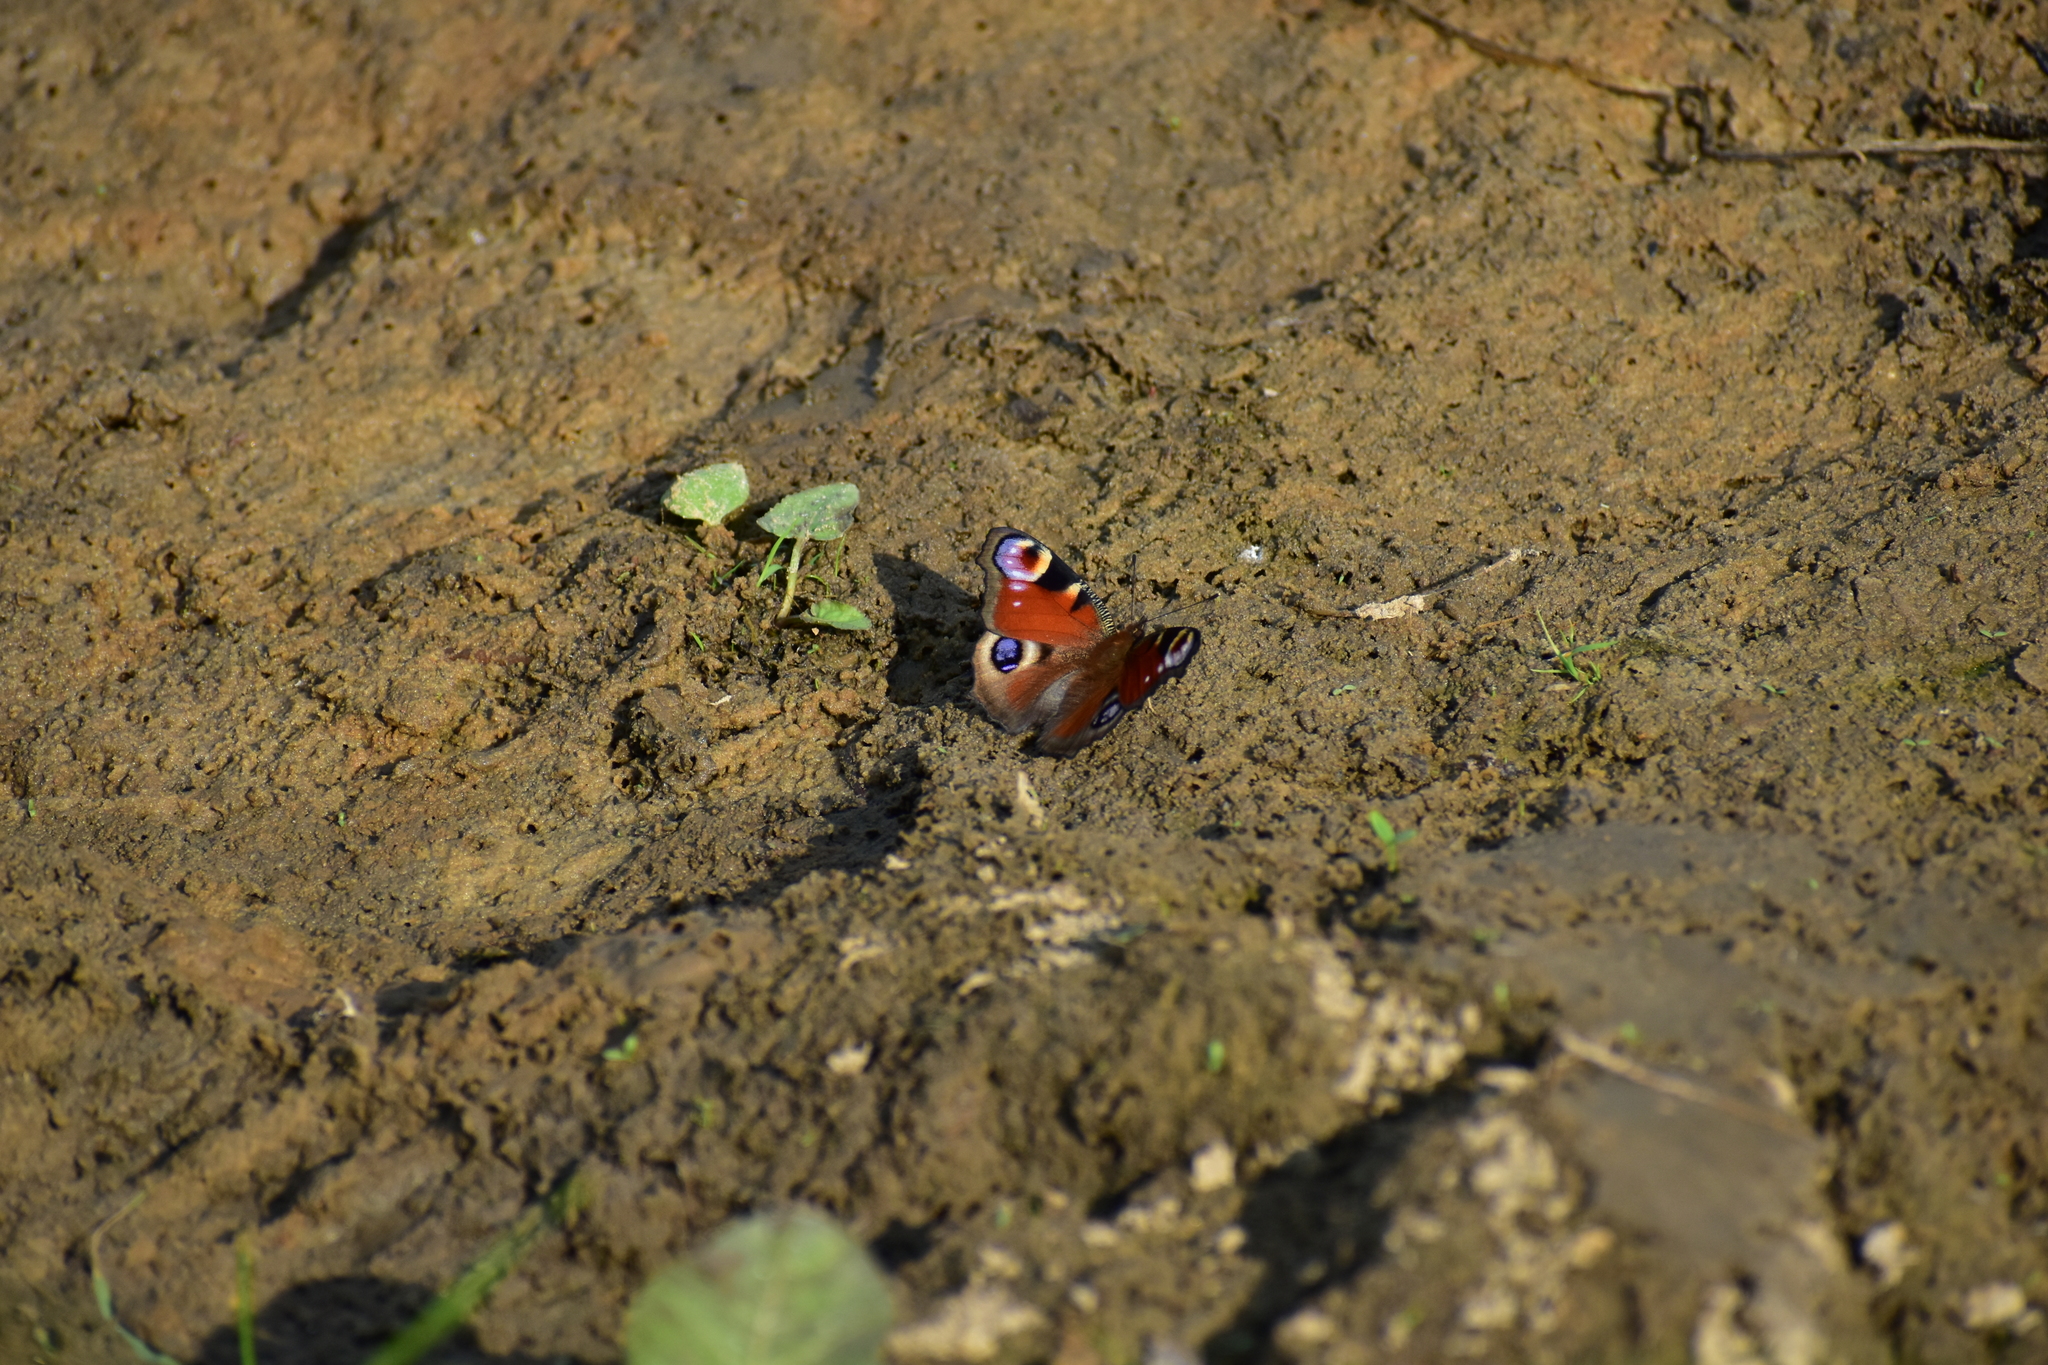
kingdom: Animalia
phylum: Arthropoda
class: Insecta
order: Lepidoptera
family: Nymphalidae
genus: Aglais
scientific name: Aglais io
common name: Peacock
